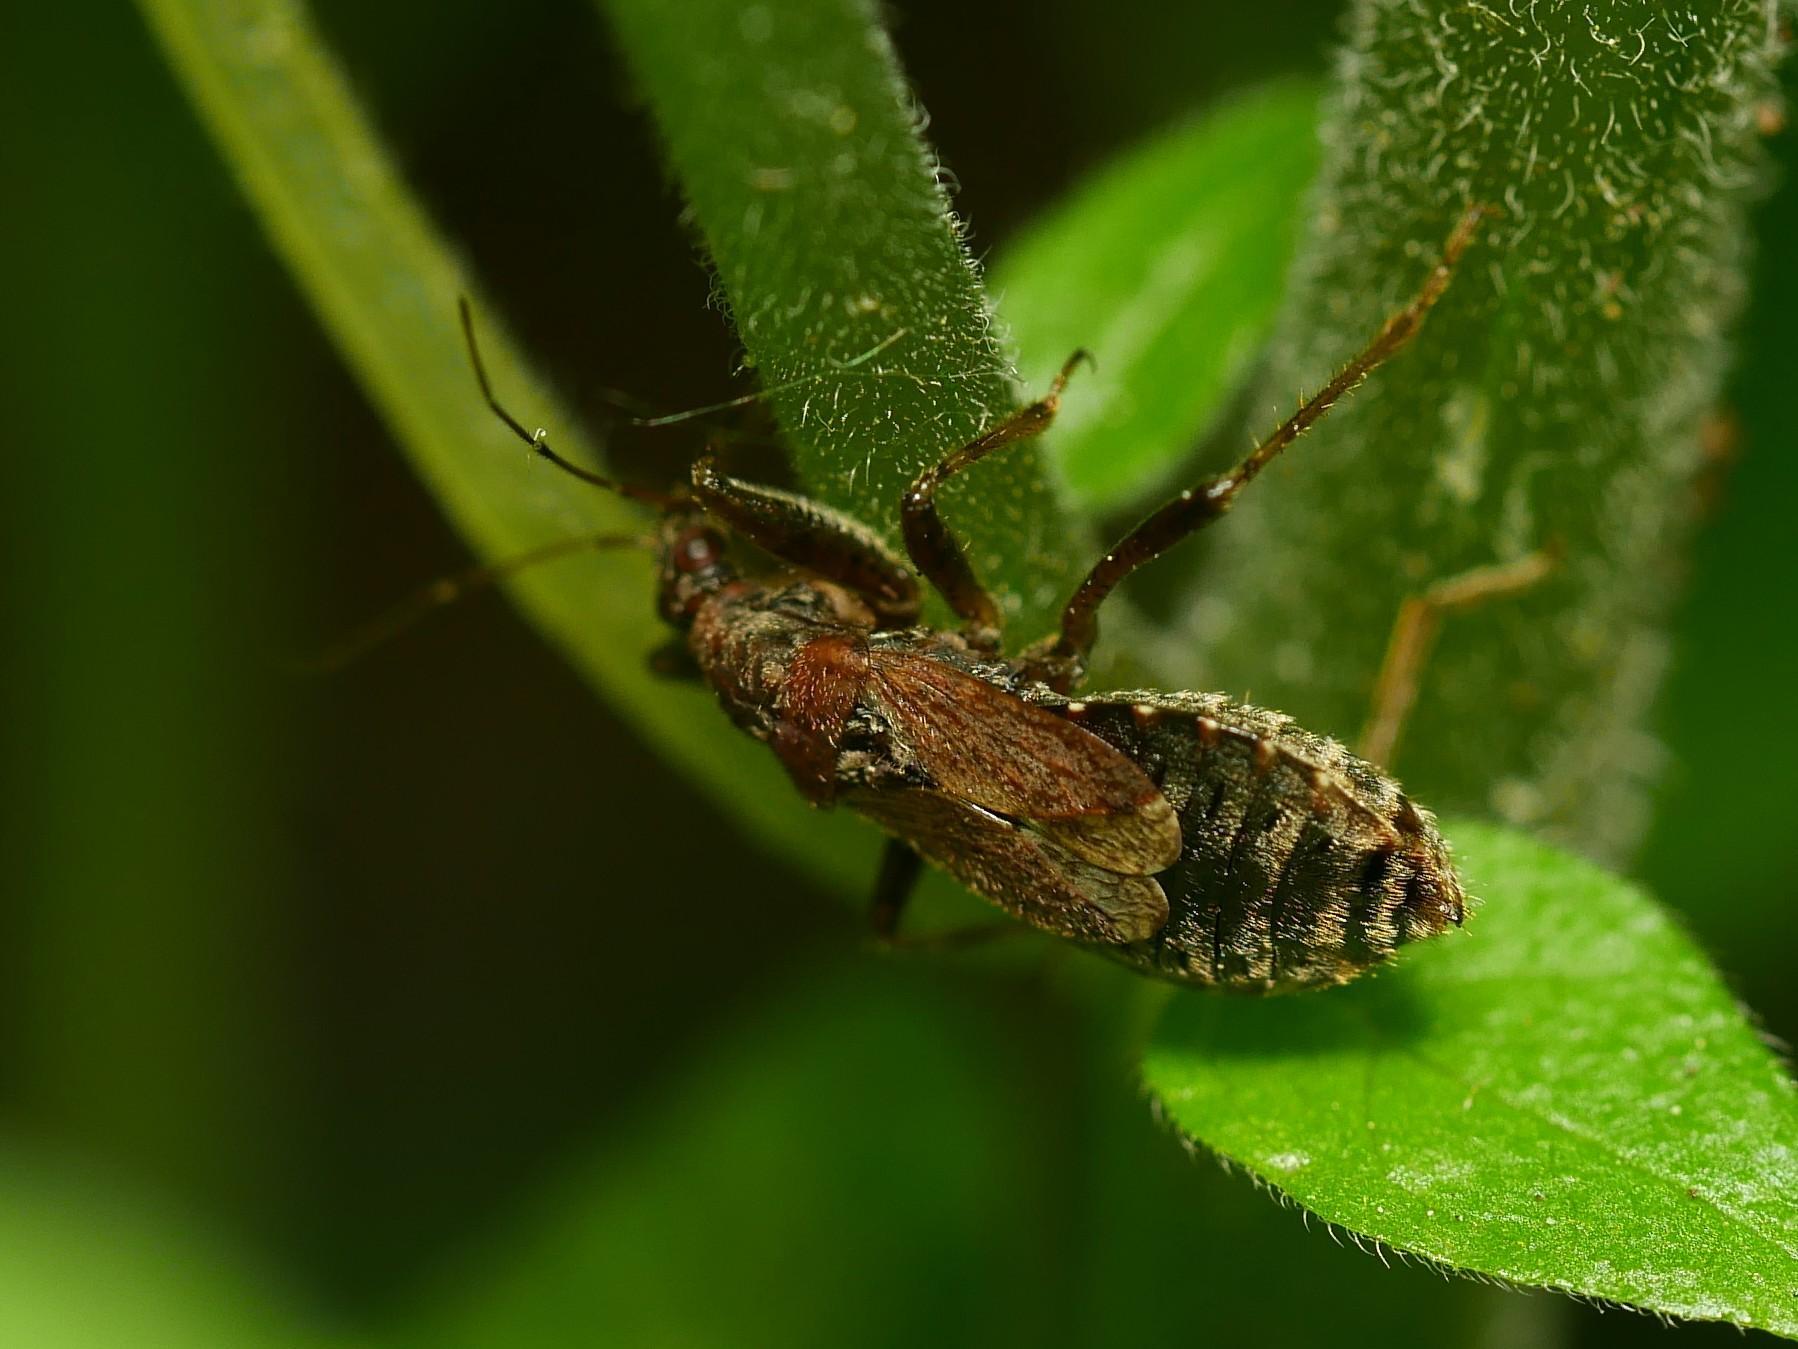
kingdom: Animalia
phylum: Arthropoda
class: Insecta
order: Hemiptera
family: Nabidae
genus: Himacerus
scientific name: Himacerus mirmicoides
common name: Ant damsel bug
